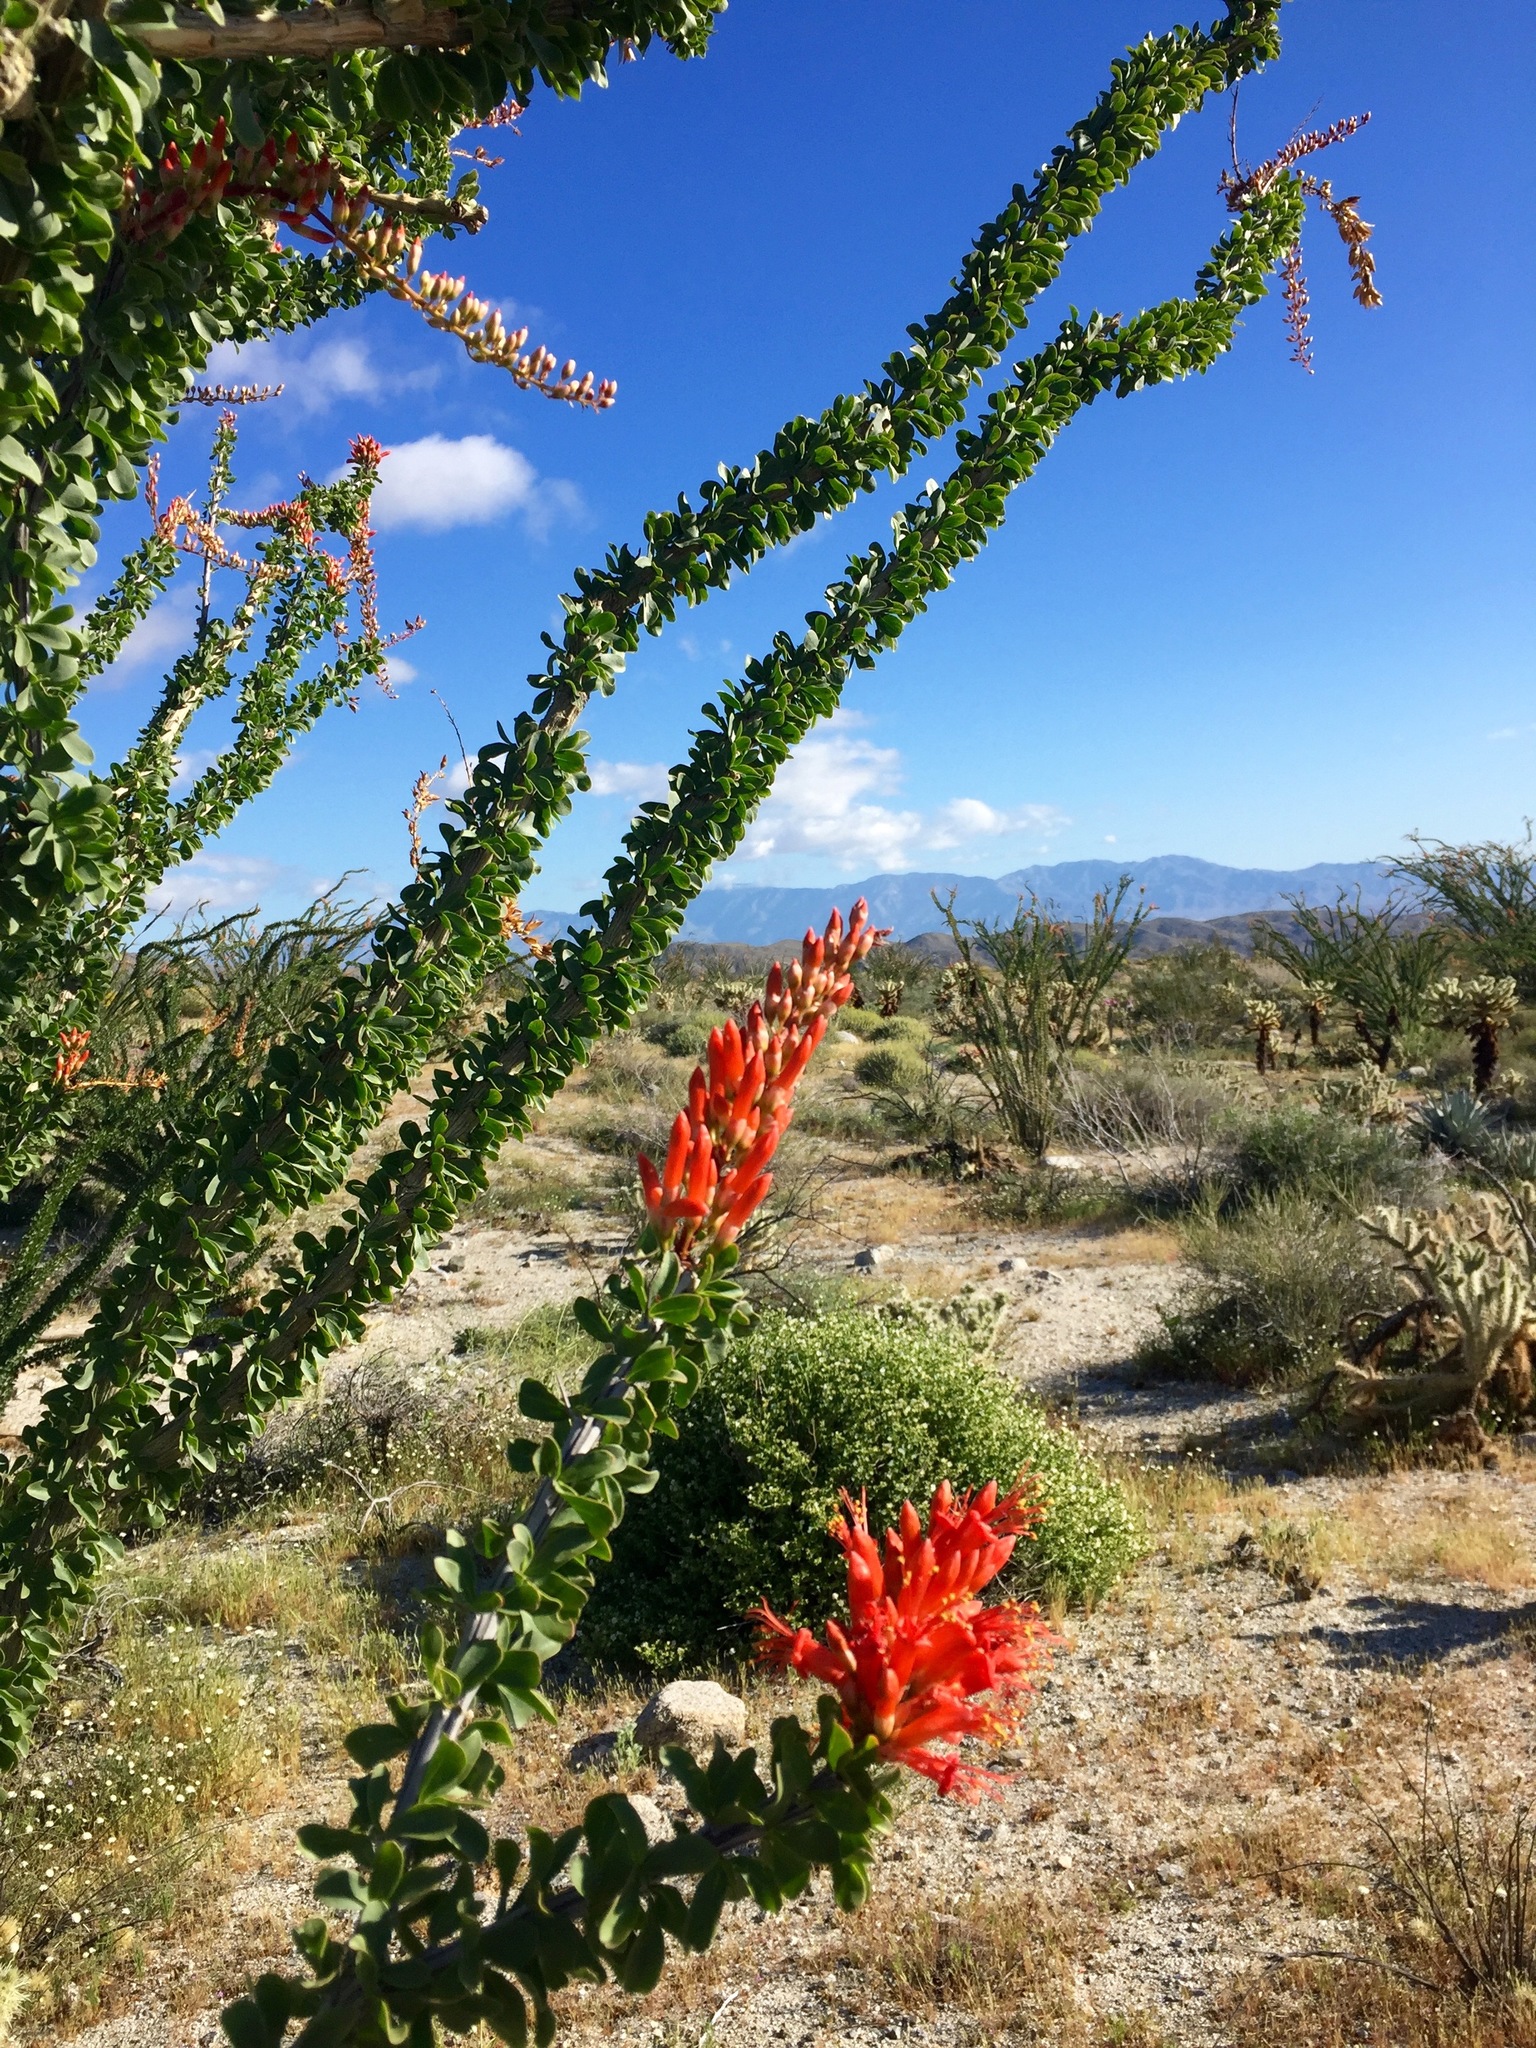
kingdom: Plantae
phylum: Tracheophyta
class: Magnoliopsida
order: Ericales
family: Fouquieriaceae
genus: Fouquieria
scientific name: Fouquieria splendens
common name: Vine-cactus
